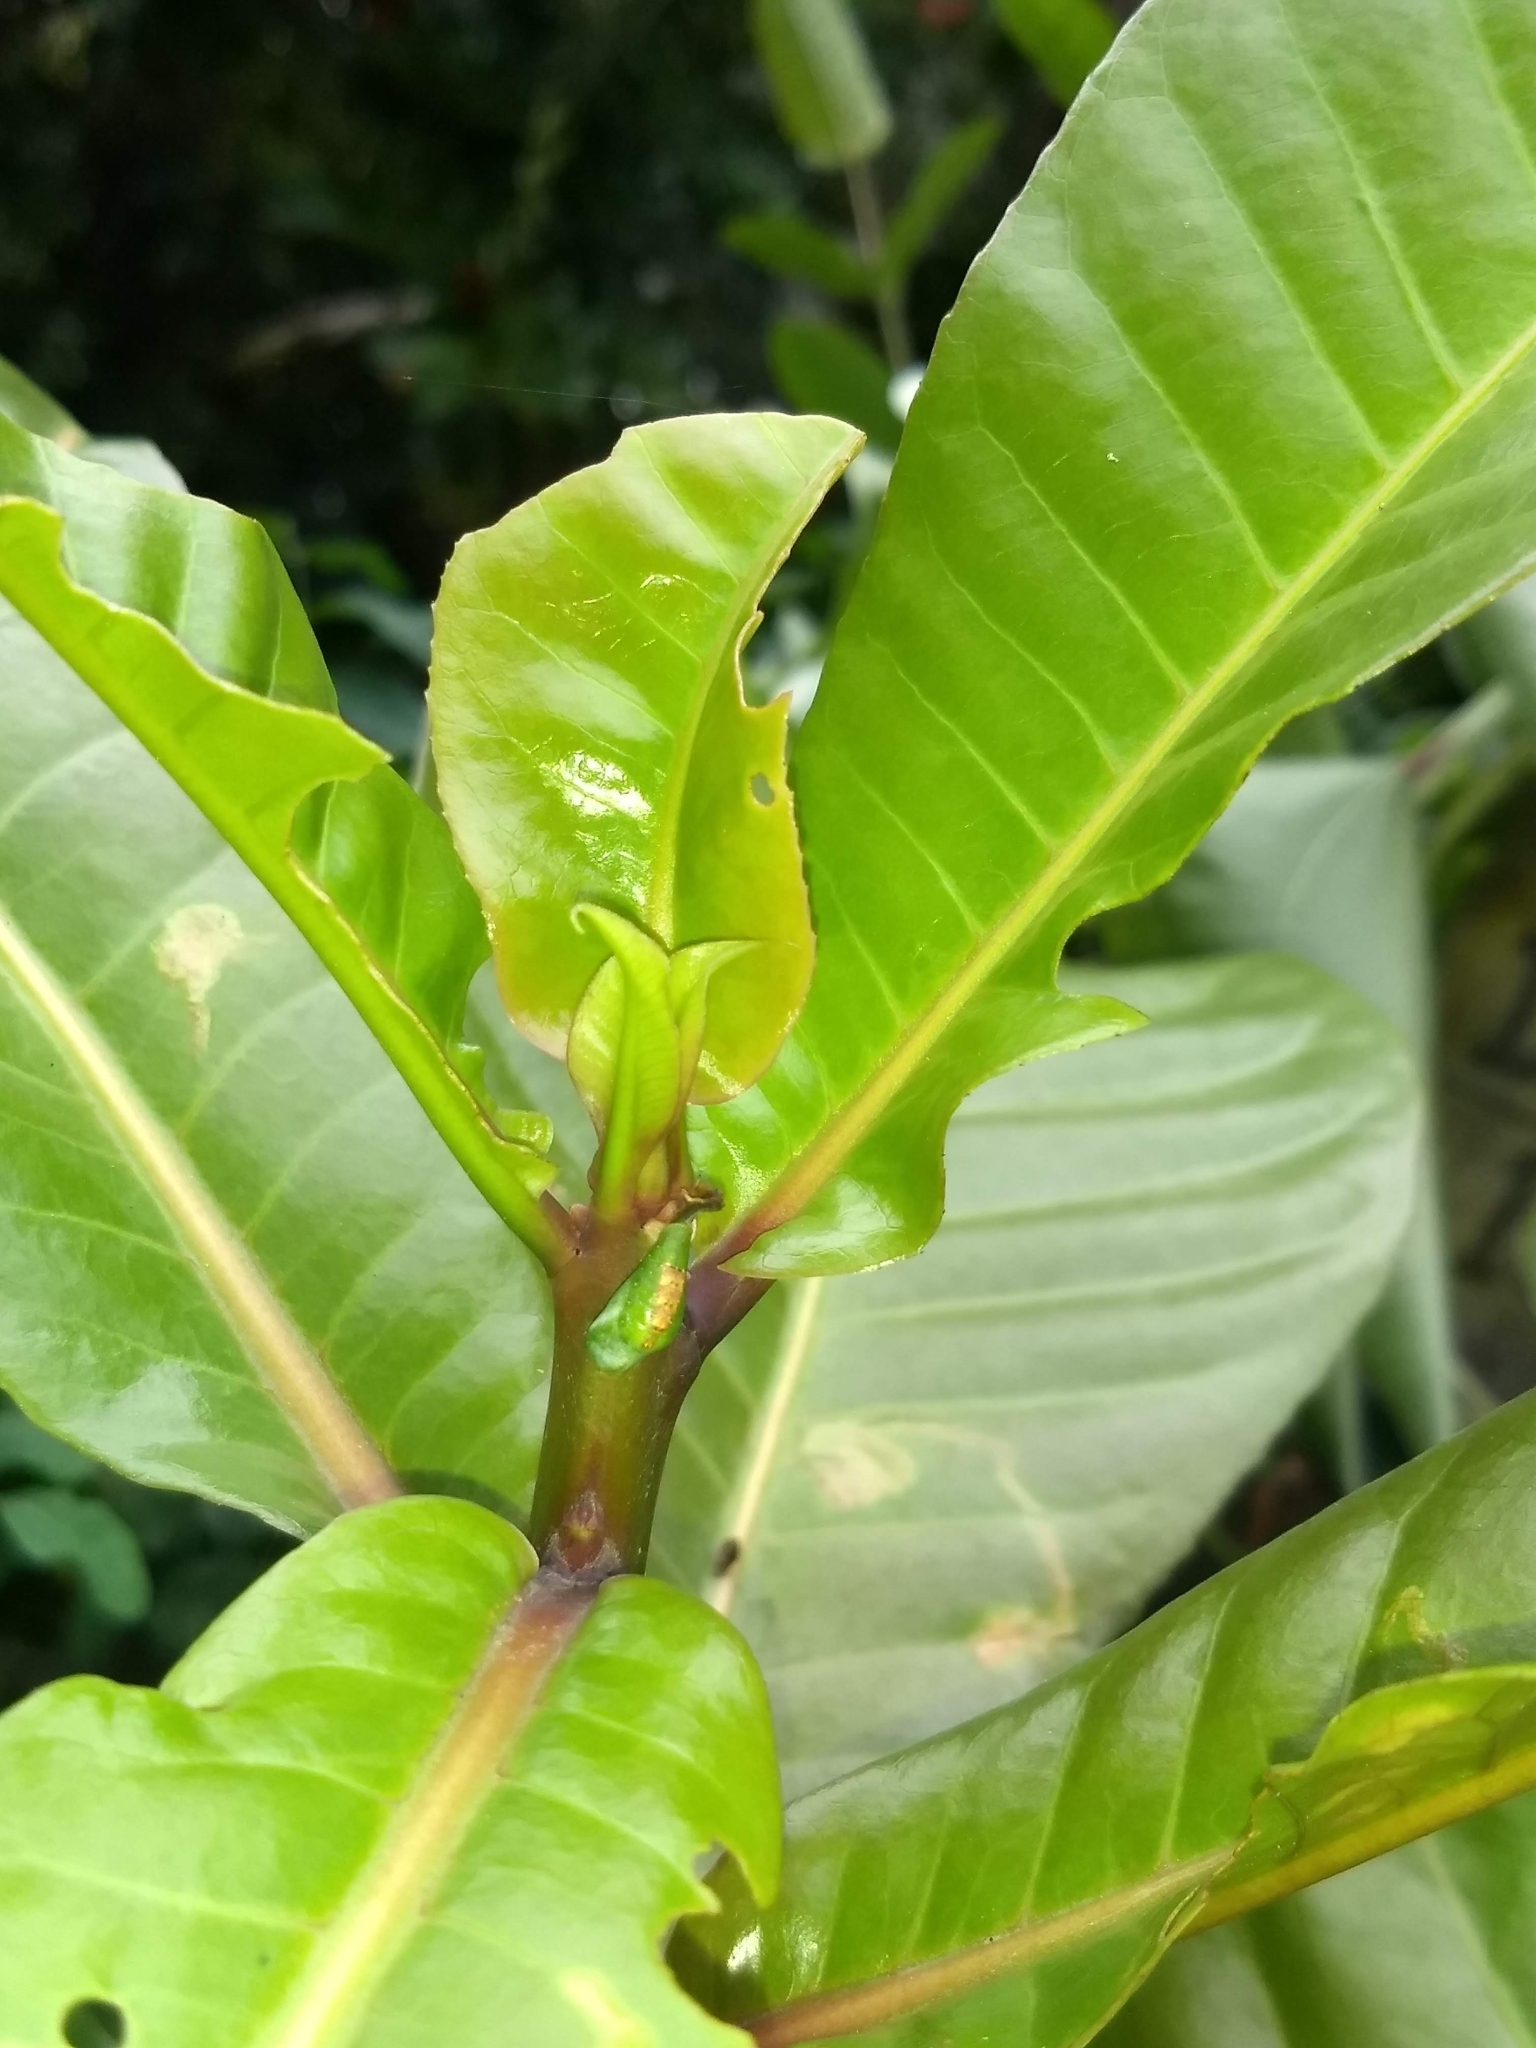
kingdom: Animalia
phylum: Arthropoda
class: Insecta
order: Lepidoptera
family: Lycaenidae
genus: Rathinda
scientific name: Rathinda amor
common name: Monkey puzzle
